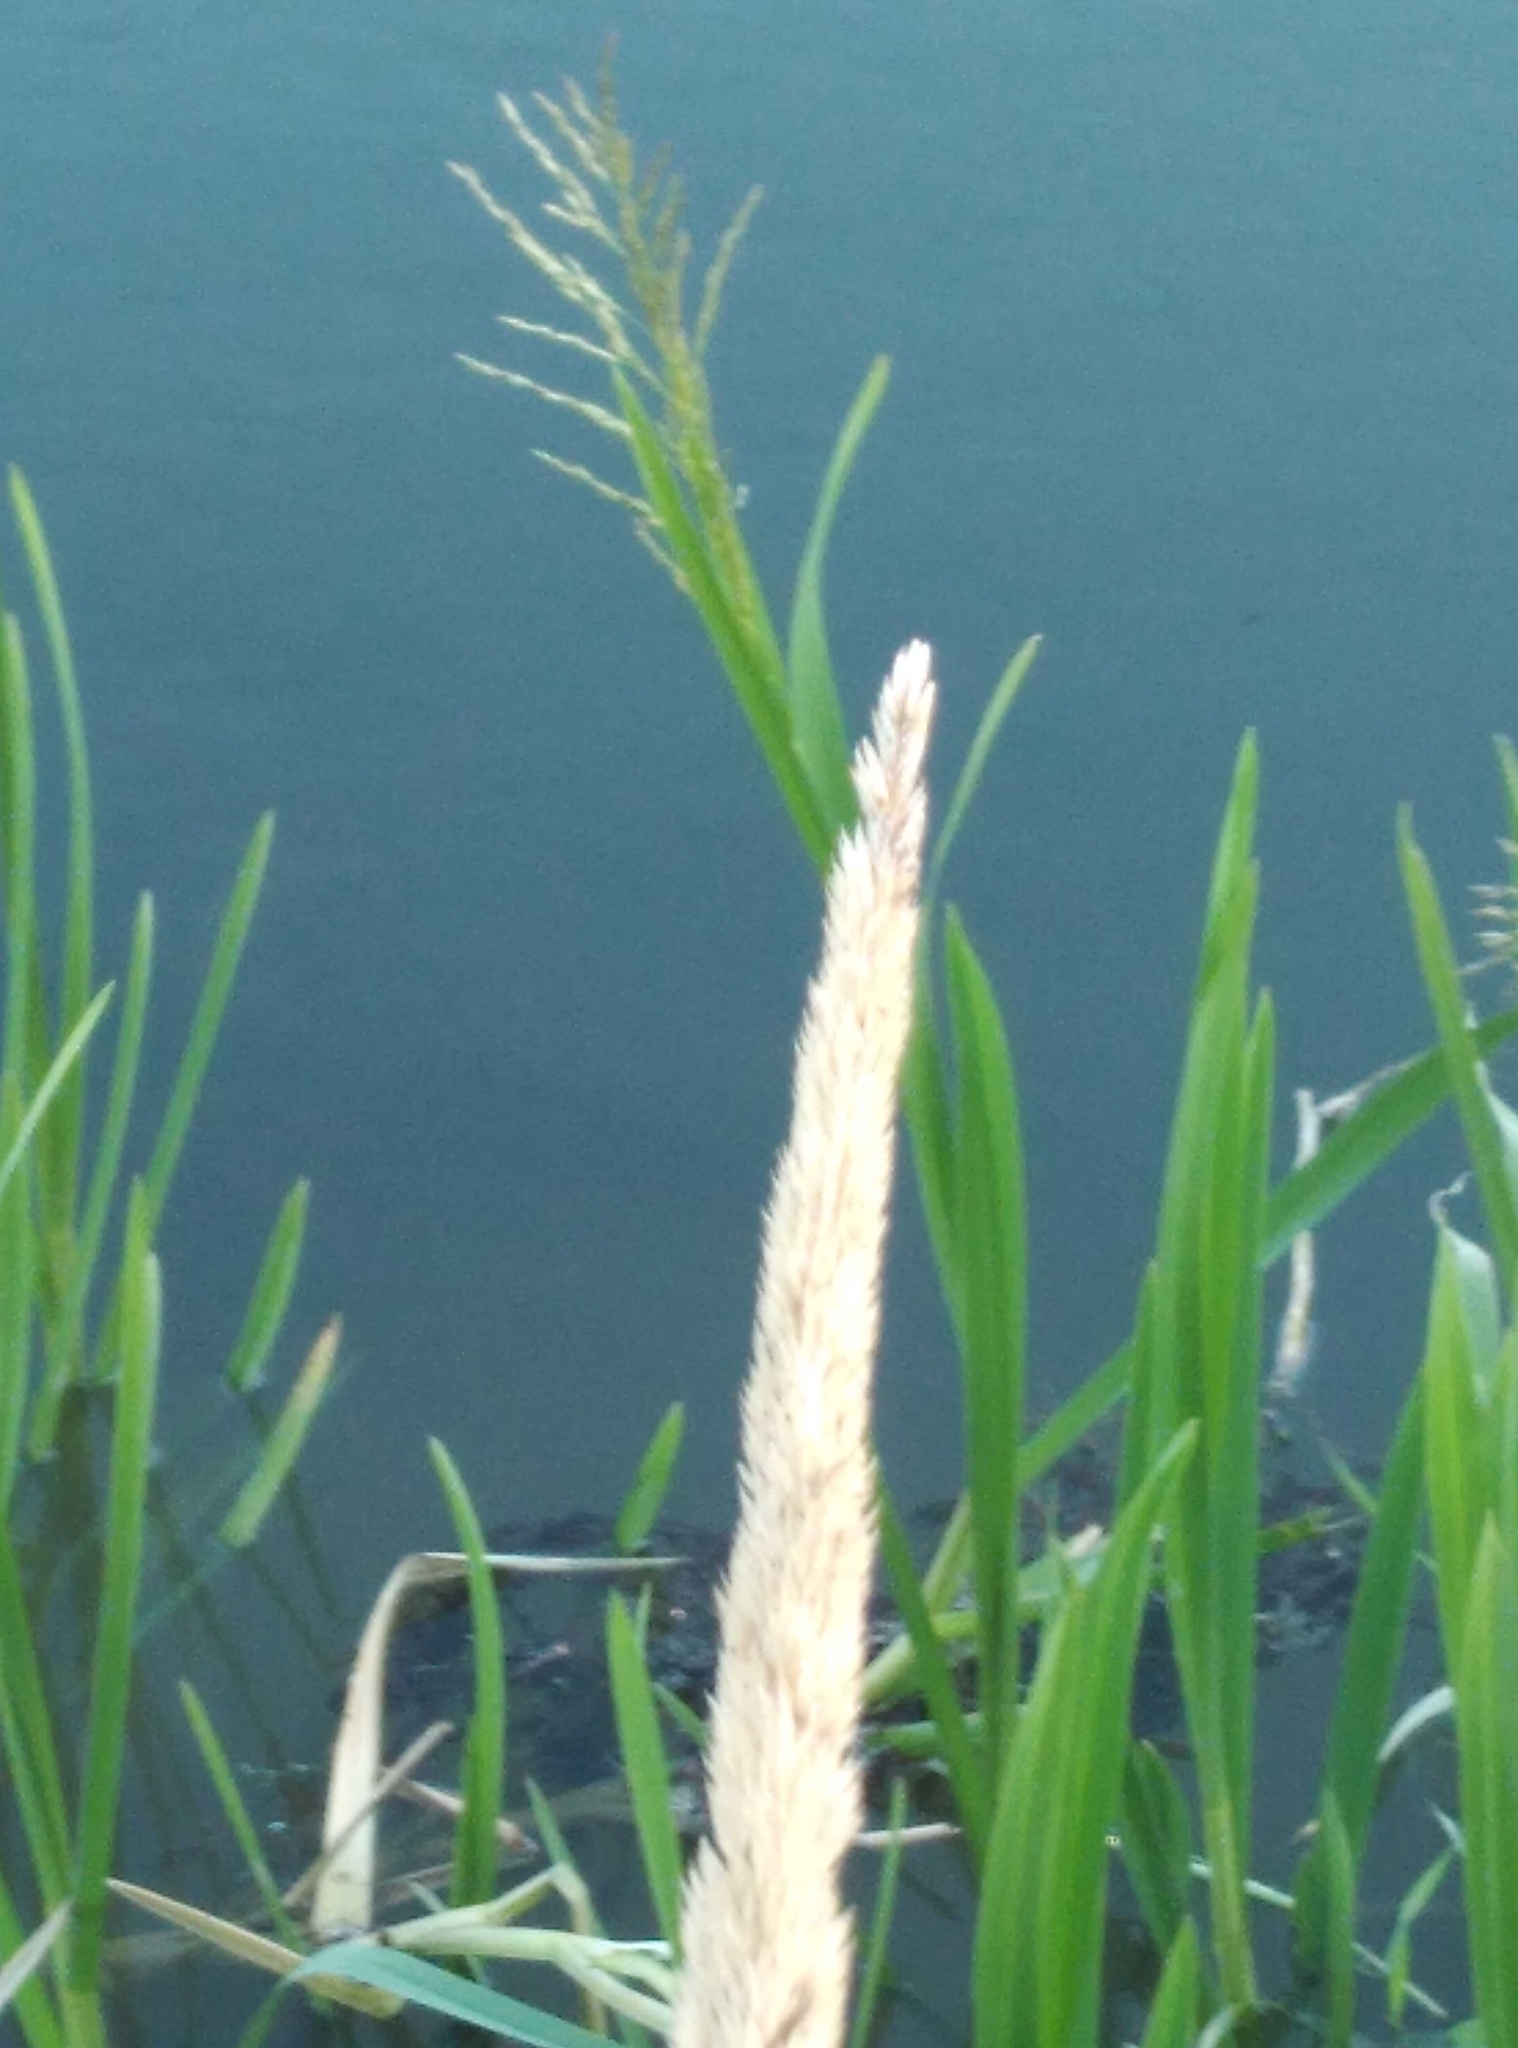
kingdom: Plantae
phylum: Tracheophyta
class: Liliopsida
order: Poales
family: Poaceae
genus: Phalaris
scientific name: Phalaris arundinacea
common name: Reed canary-grass
